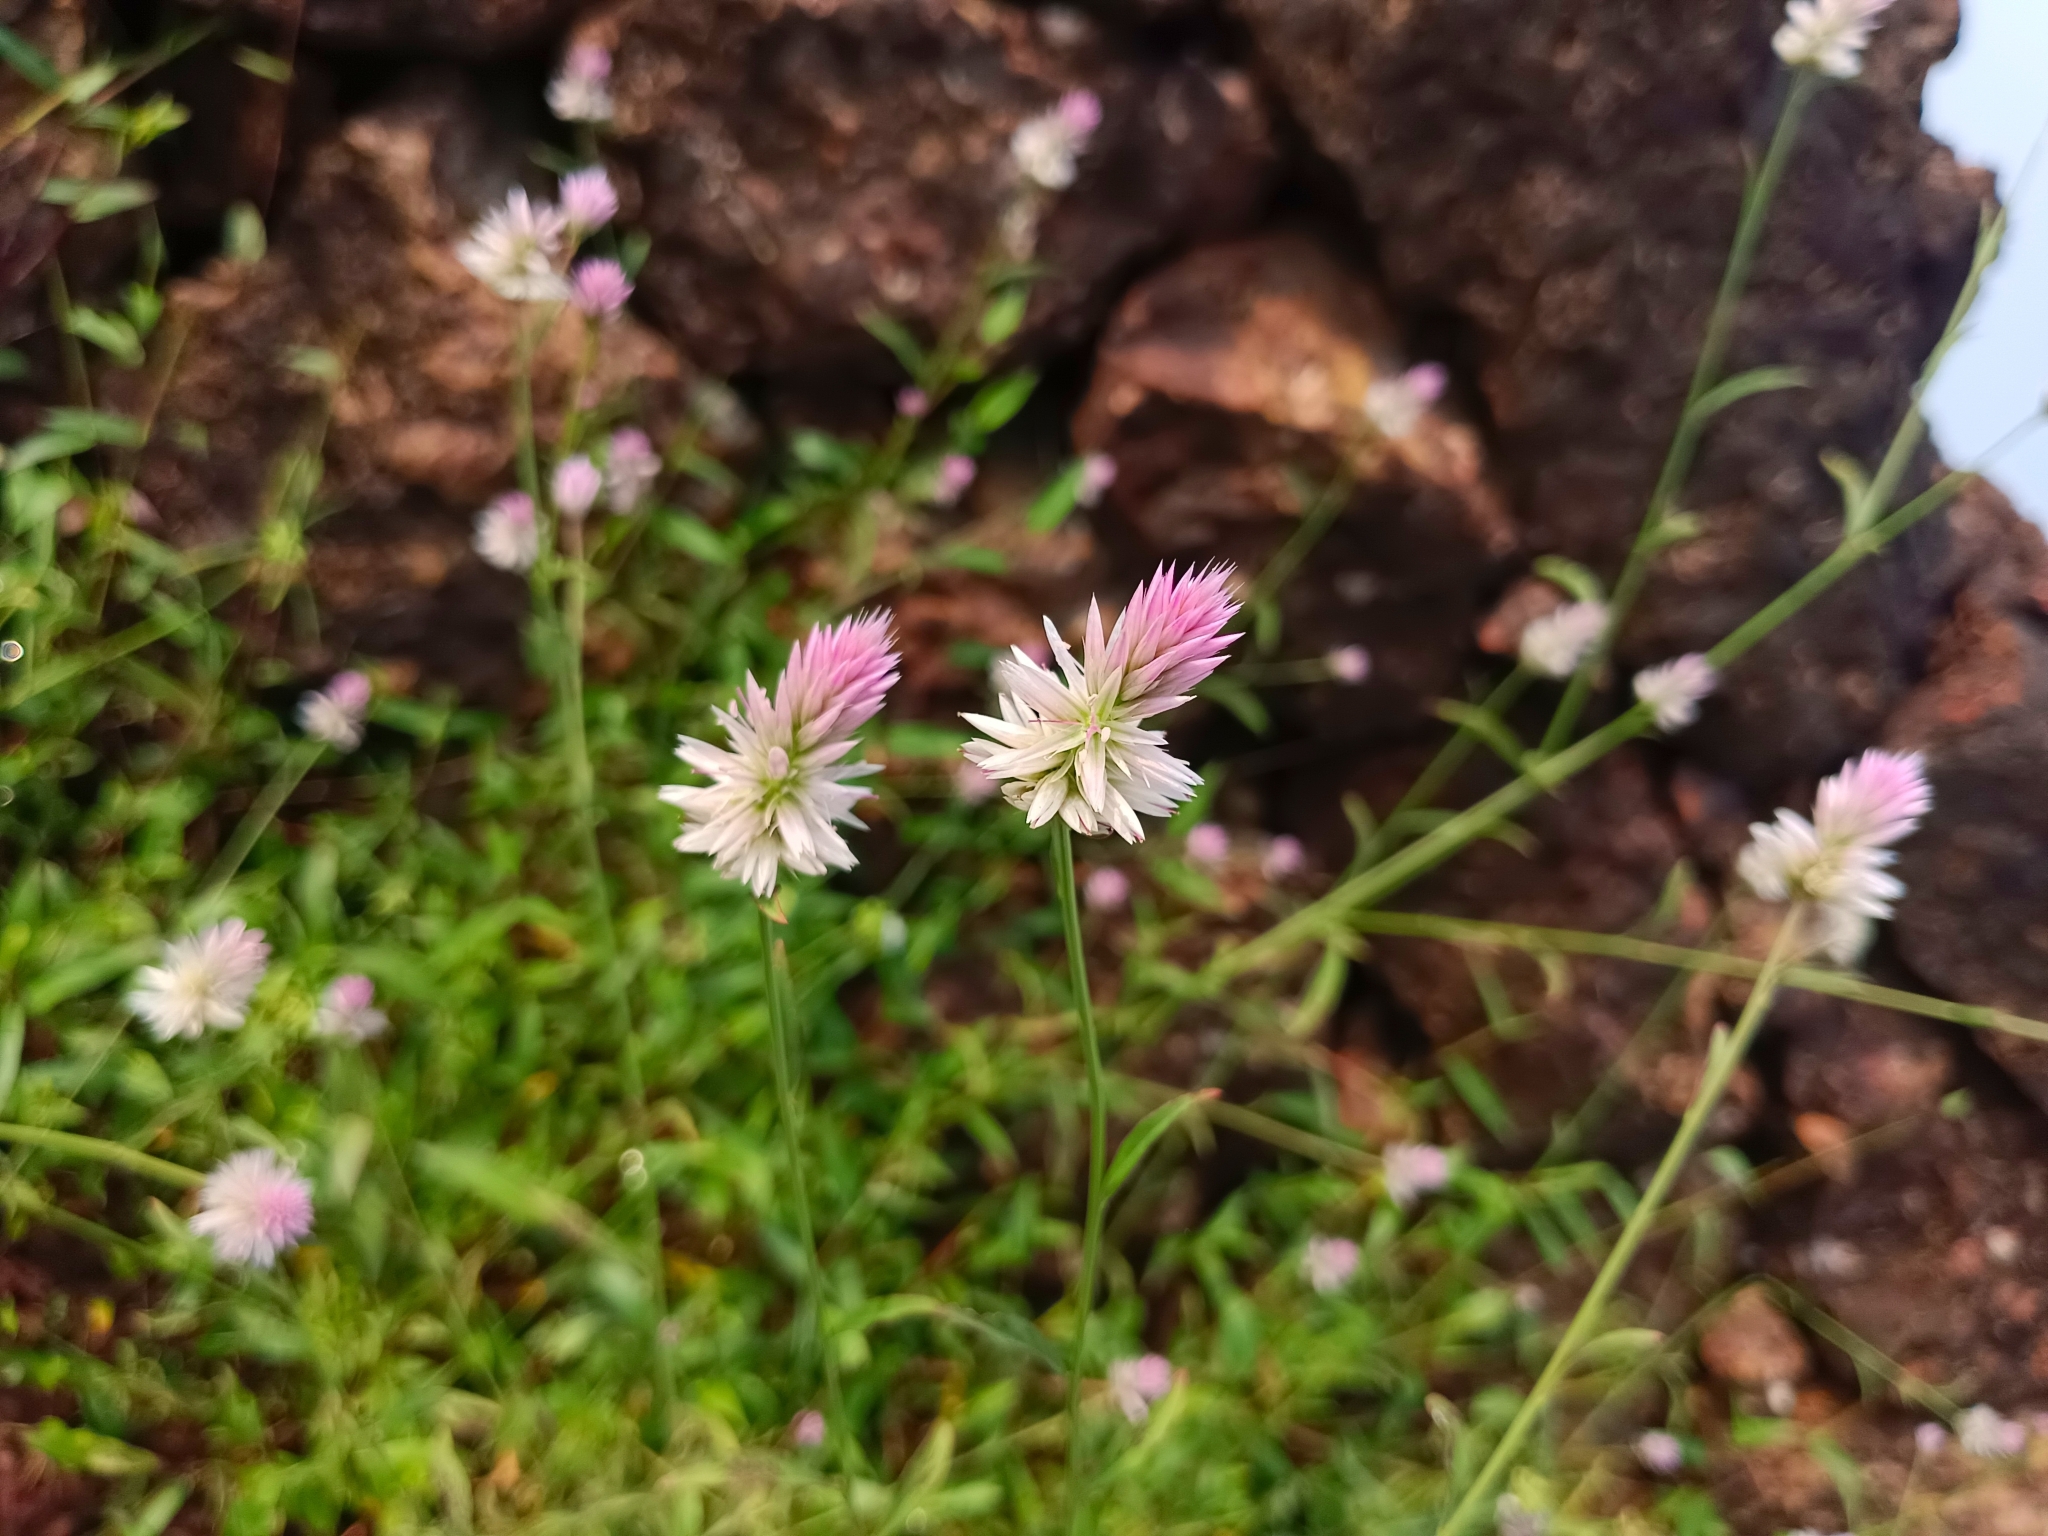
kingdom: Plantae
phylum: Tracheophyta
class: Magnoliopsida
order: Caryophyllales
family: Amaranthaceae
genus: Celosia
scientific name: Celosia argentea
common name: Feather cockscomb
